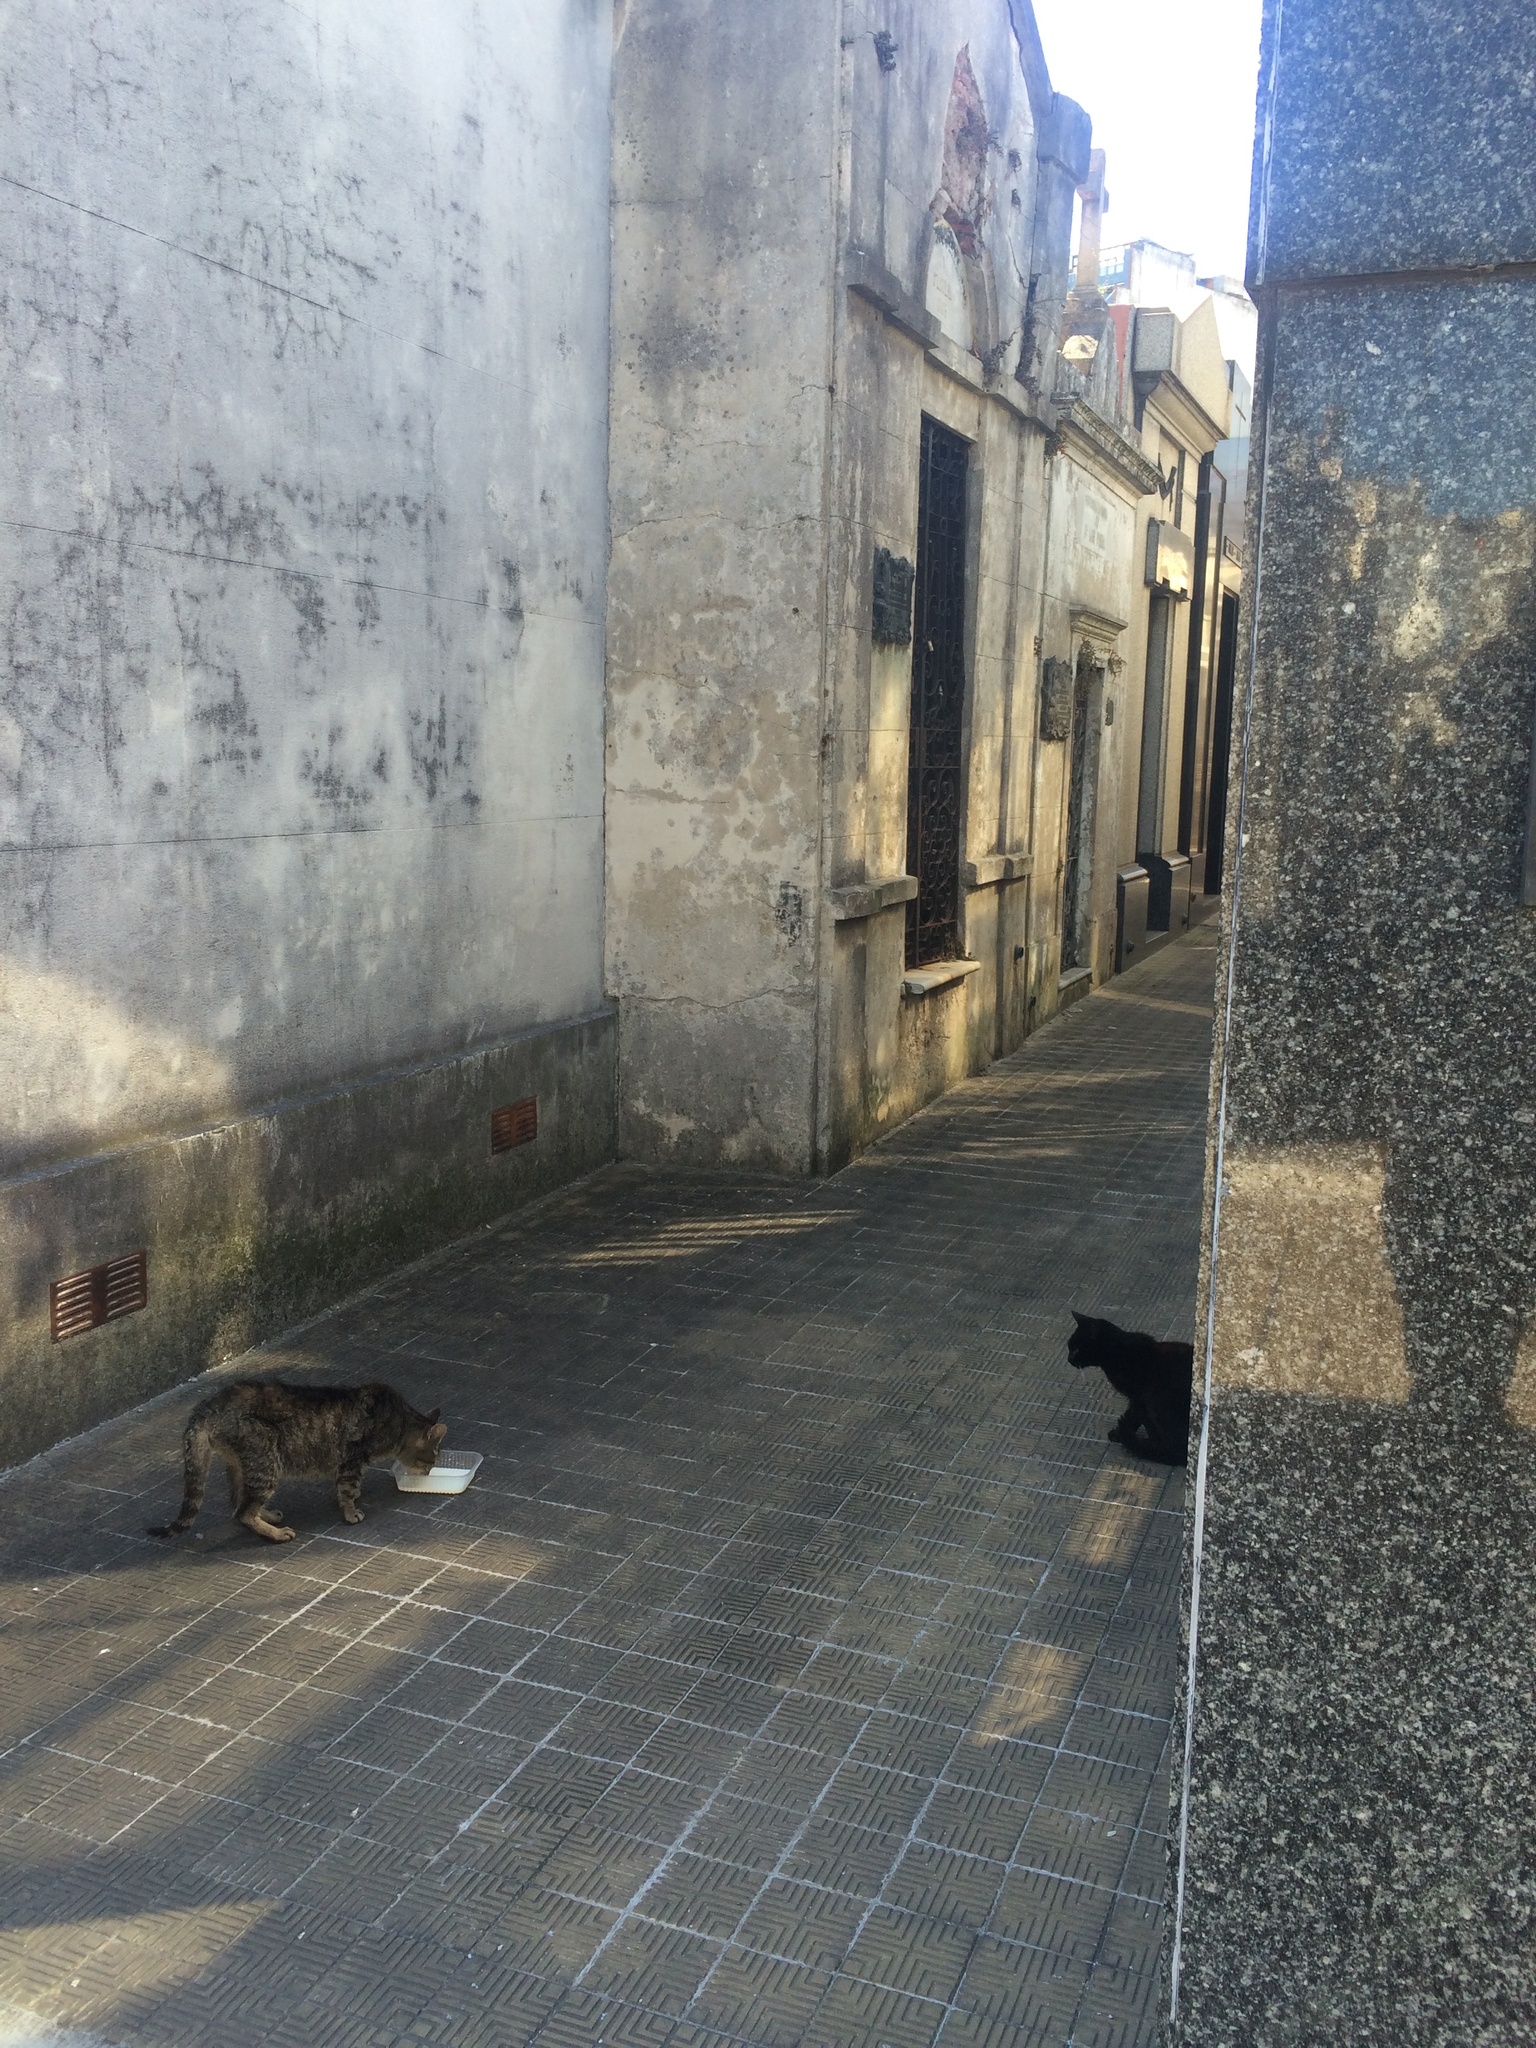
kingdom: Animalia
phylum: Chordata
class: Mammalia
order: Carnivora
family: Felidae
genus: Felis
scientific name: Felis catus
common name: Domestic cat
